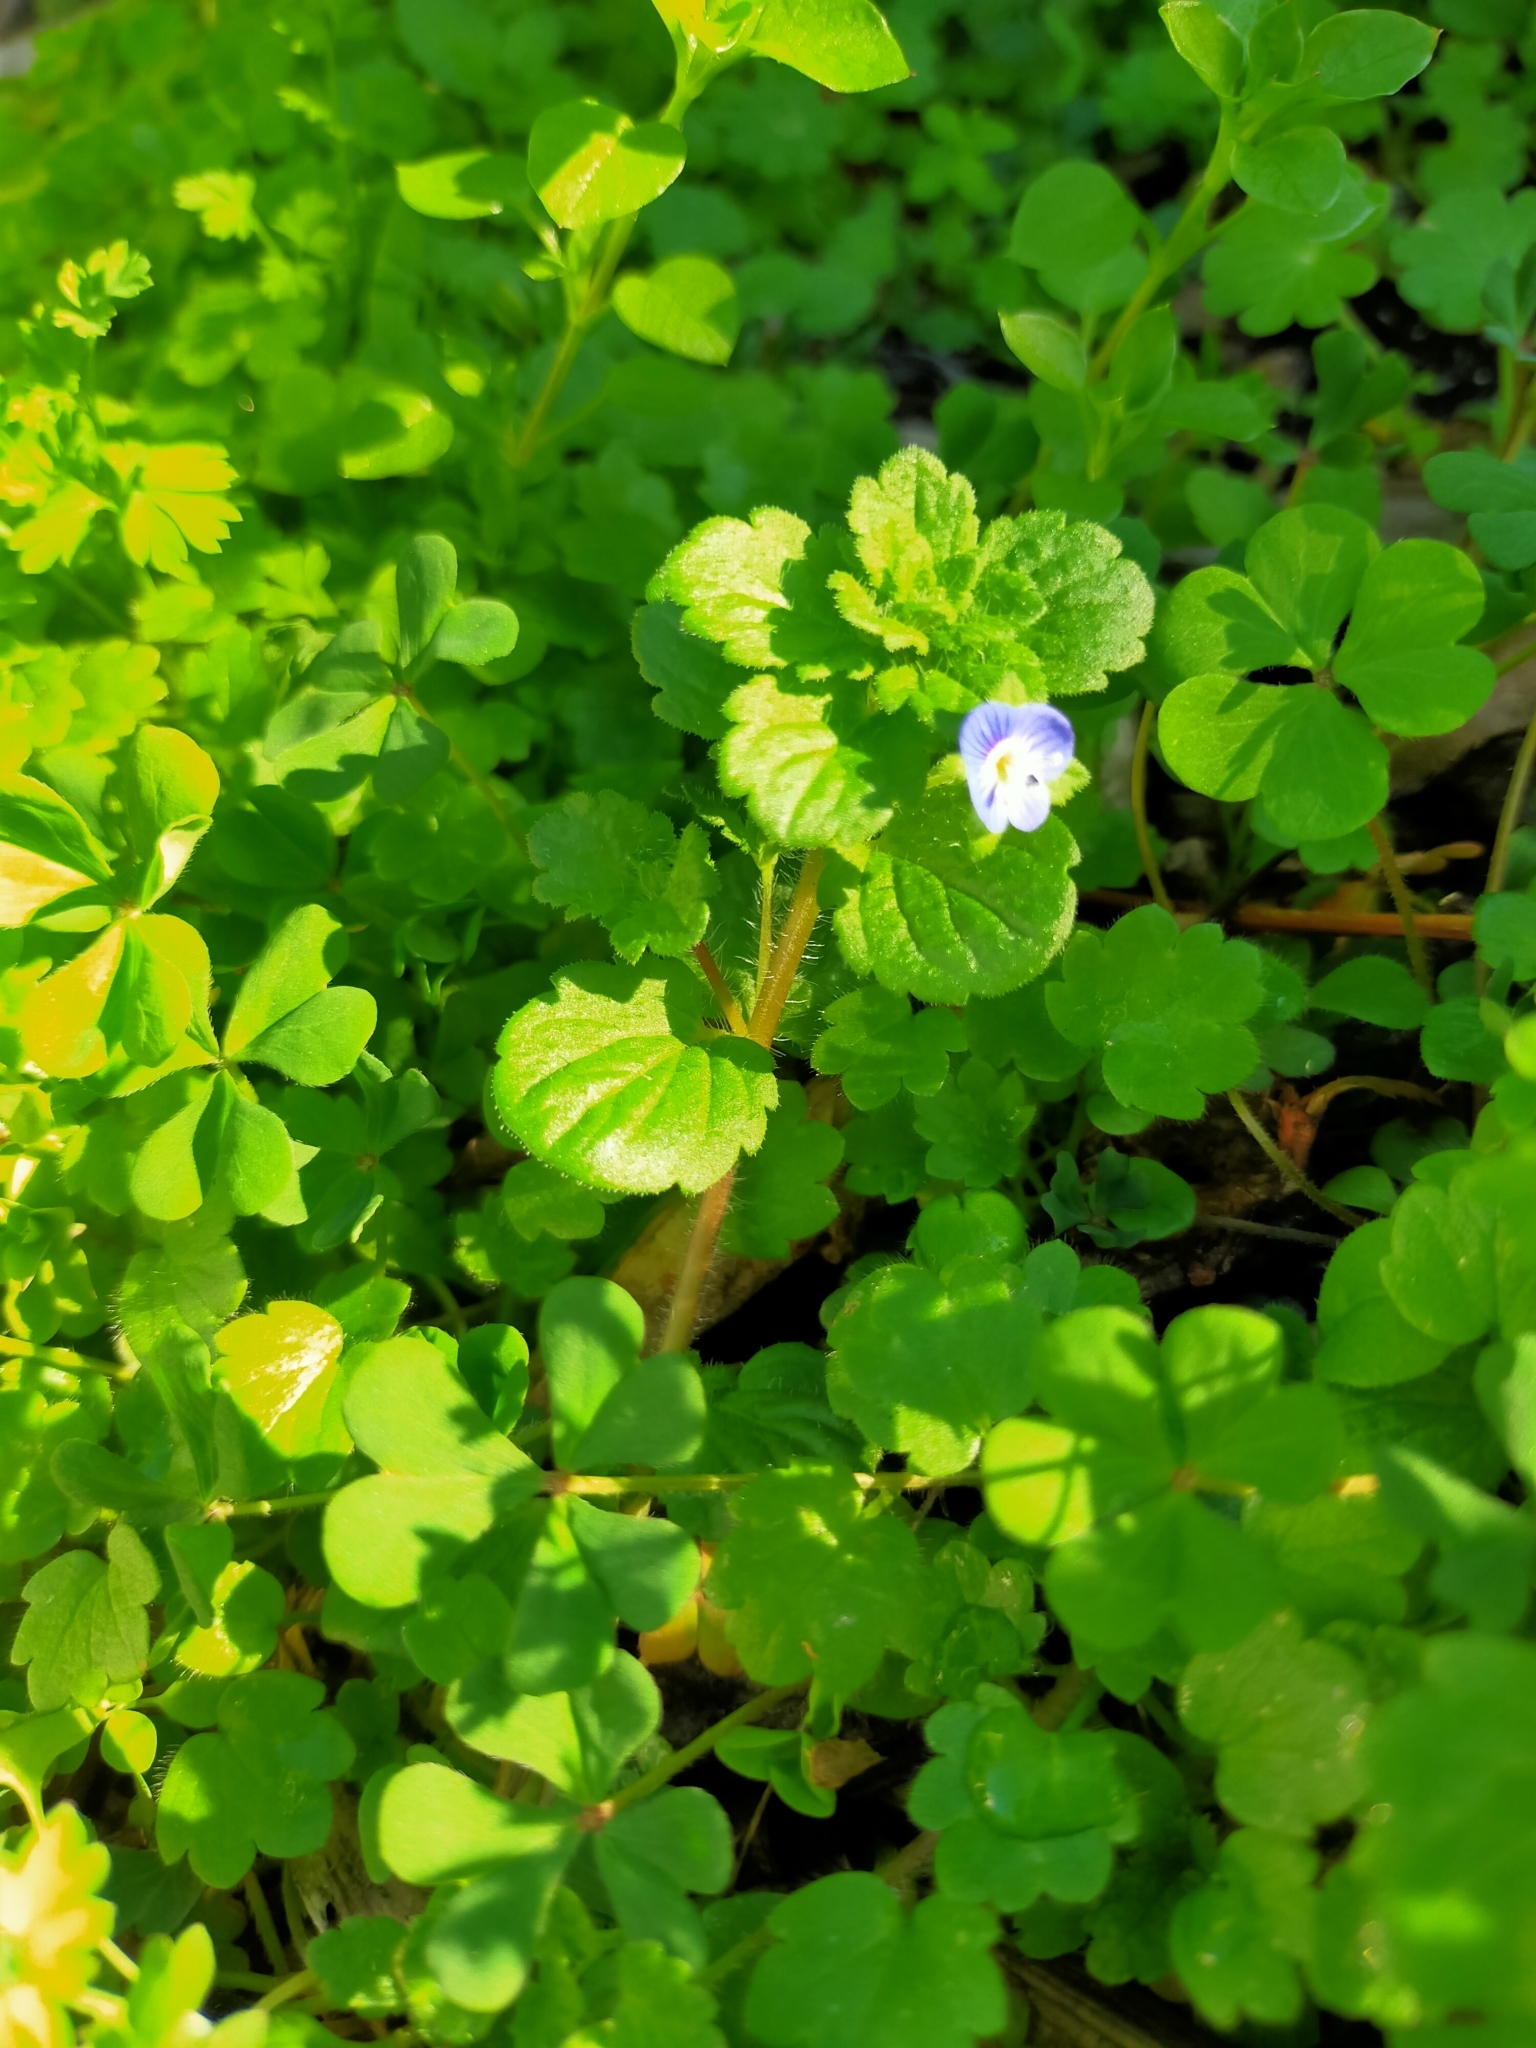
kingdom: Plantae
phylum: Tracheophyta
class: Magnoliopsida
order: Lamiales
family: Plantaginaceae
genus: Veronica
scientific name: Veronica persica
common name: Common field-speedwell
